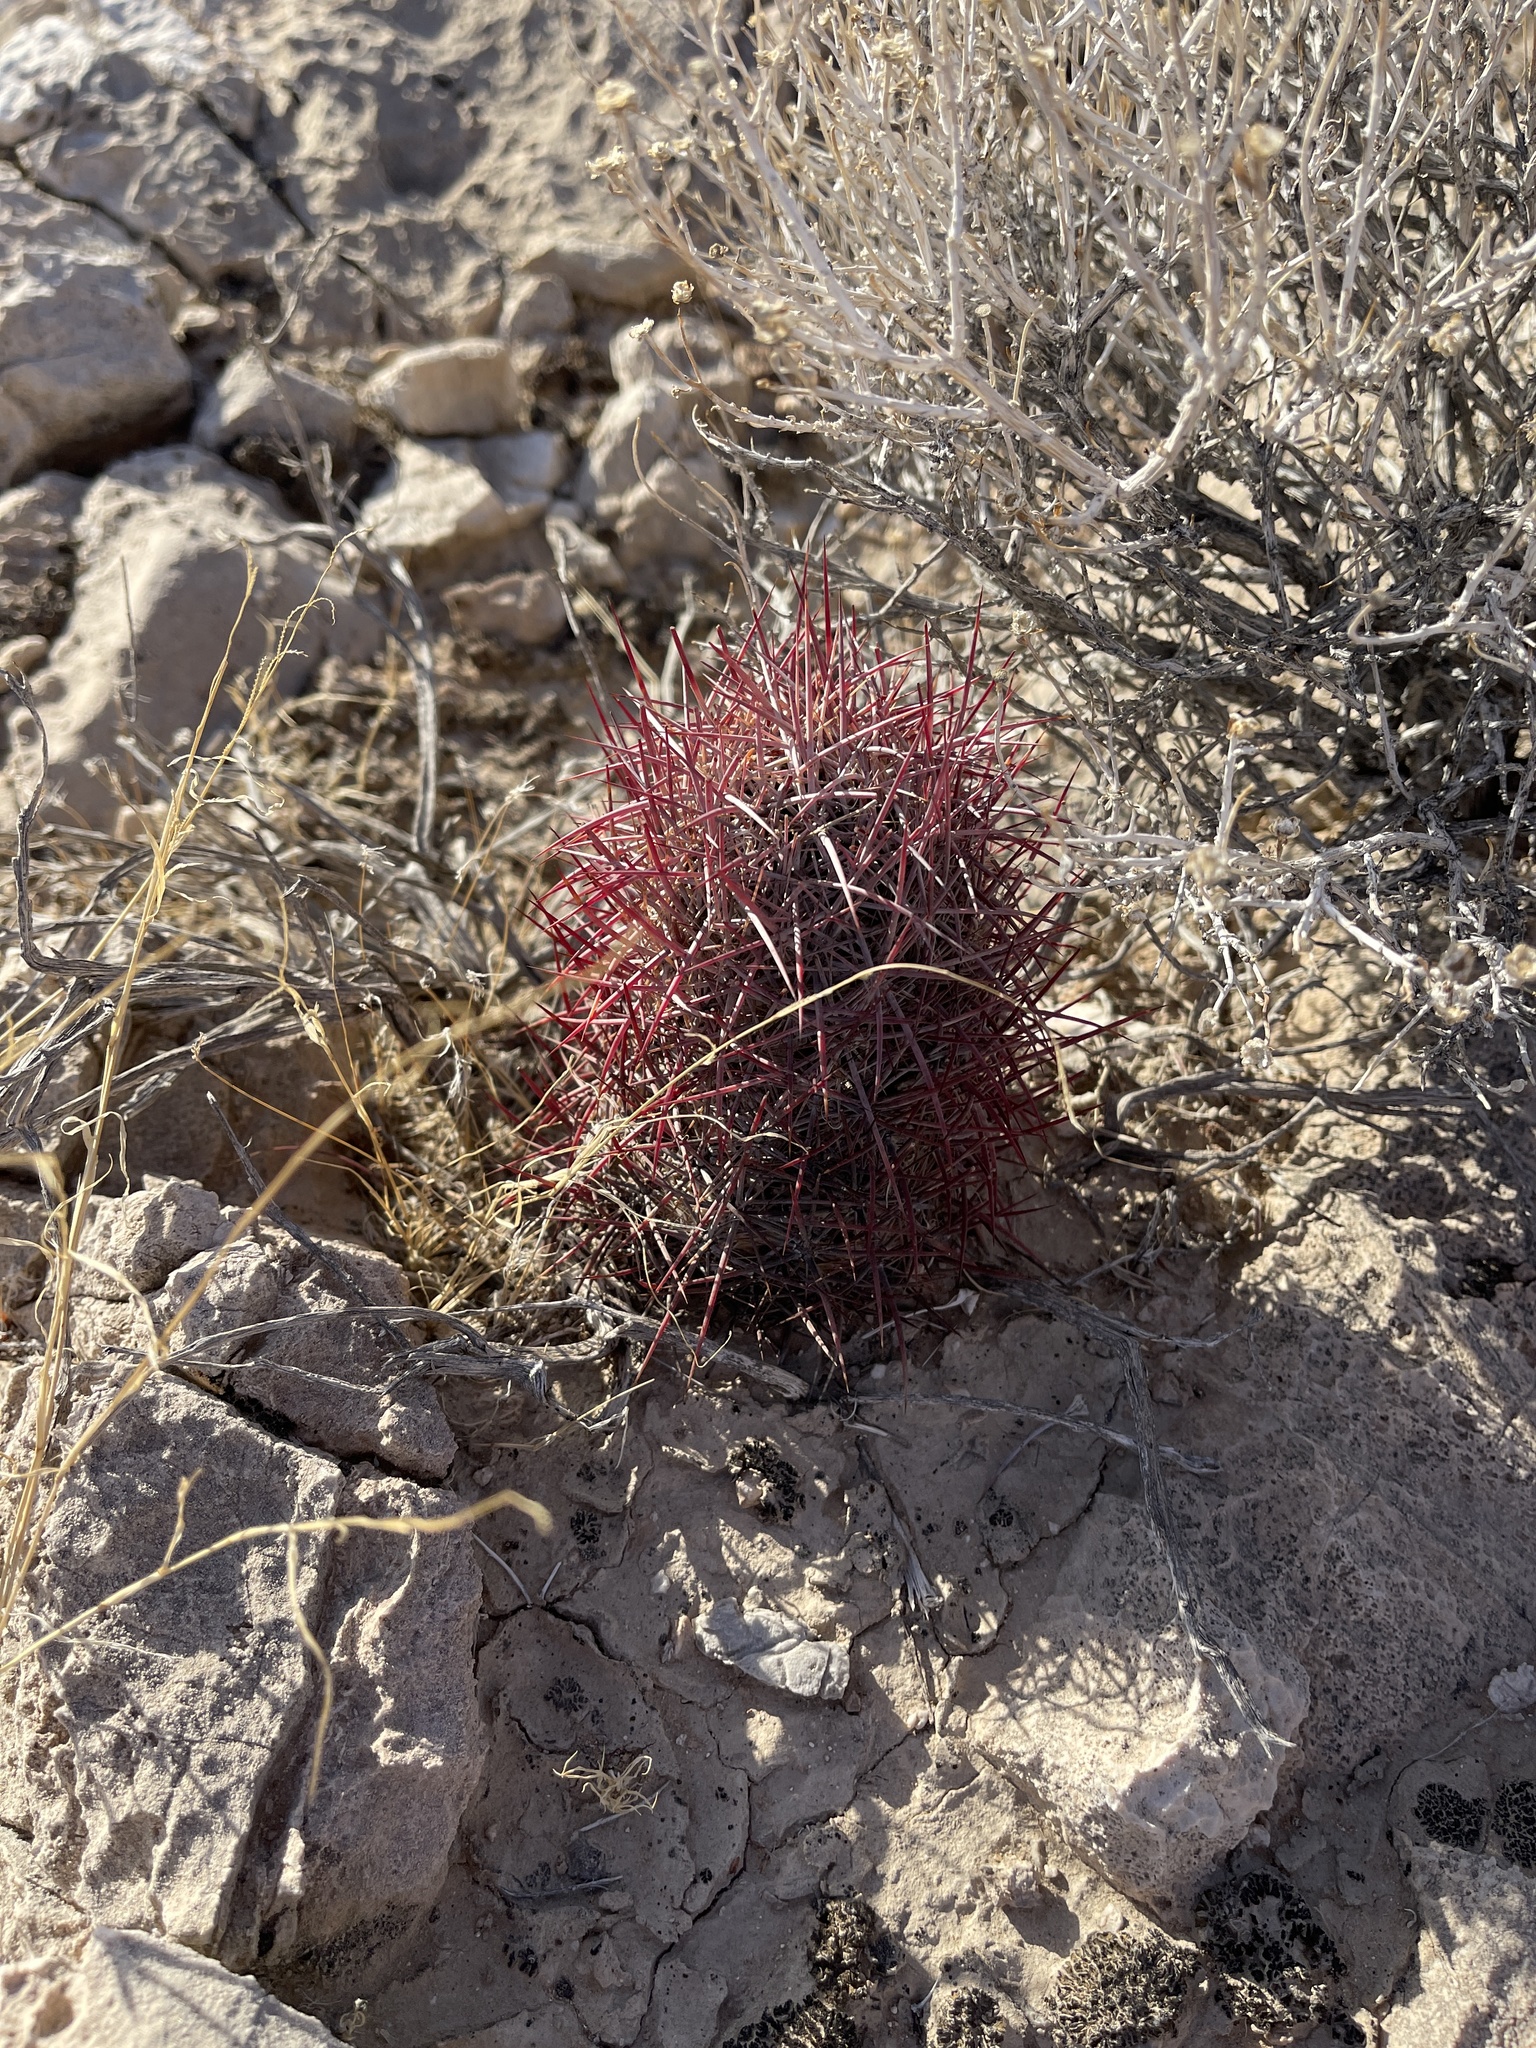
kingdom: Plantae
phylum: Tracheophyta
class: Magnoliopsida
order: Caryophyllales
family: Cactaceae
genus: Sclerocactus
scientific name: Sclerocactus johnsonii
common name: Eight-spine fishhook cactus
